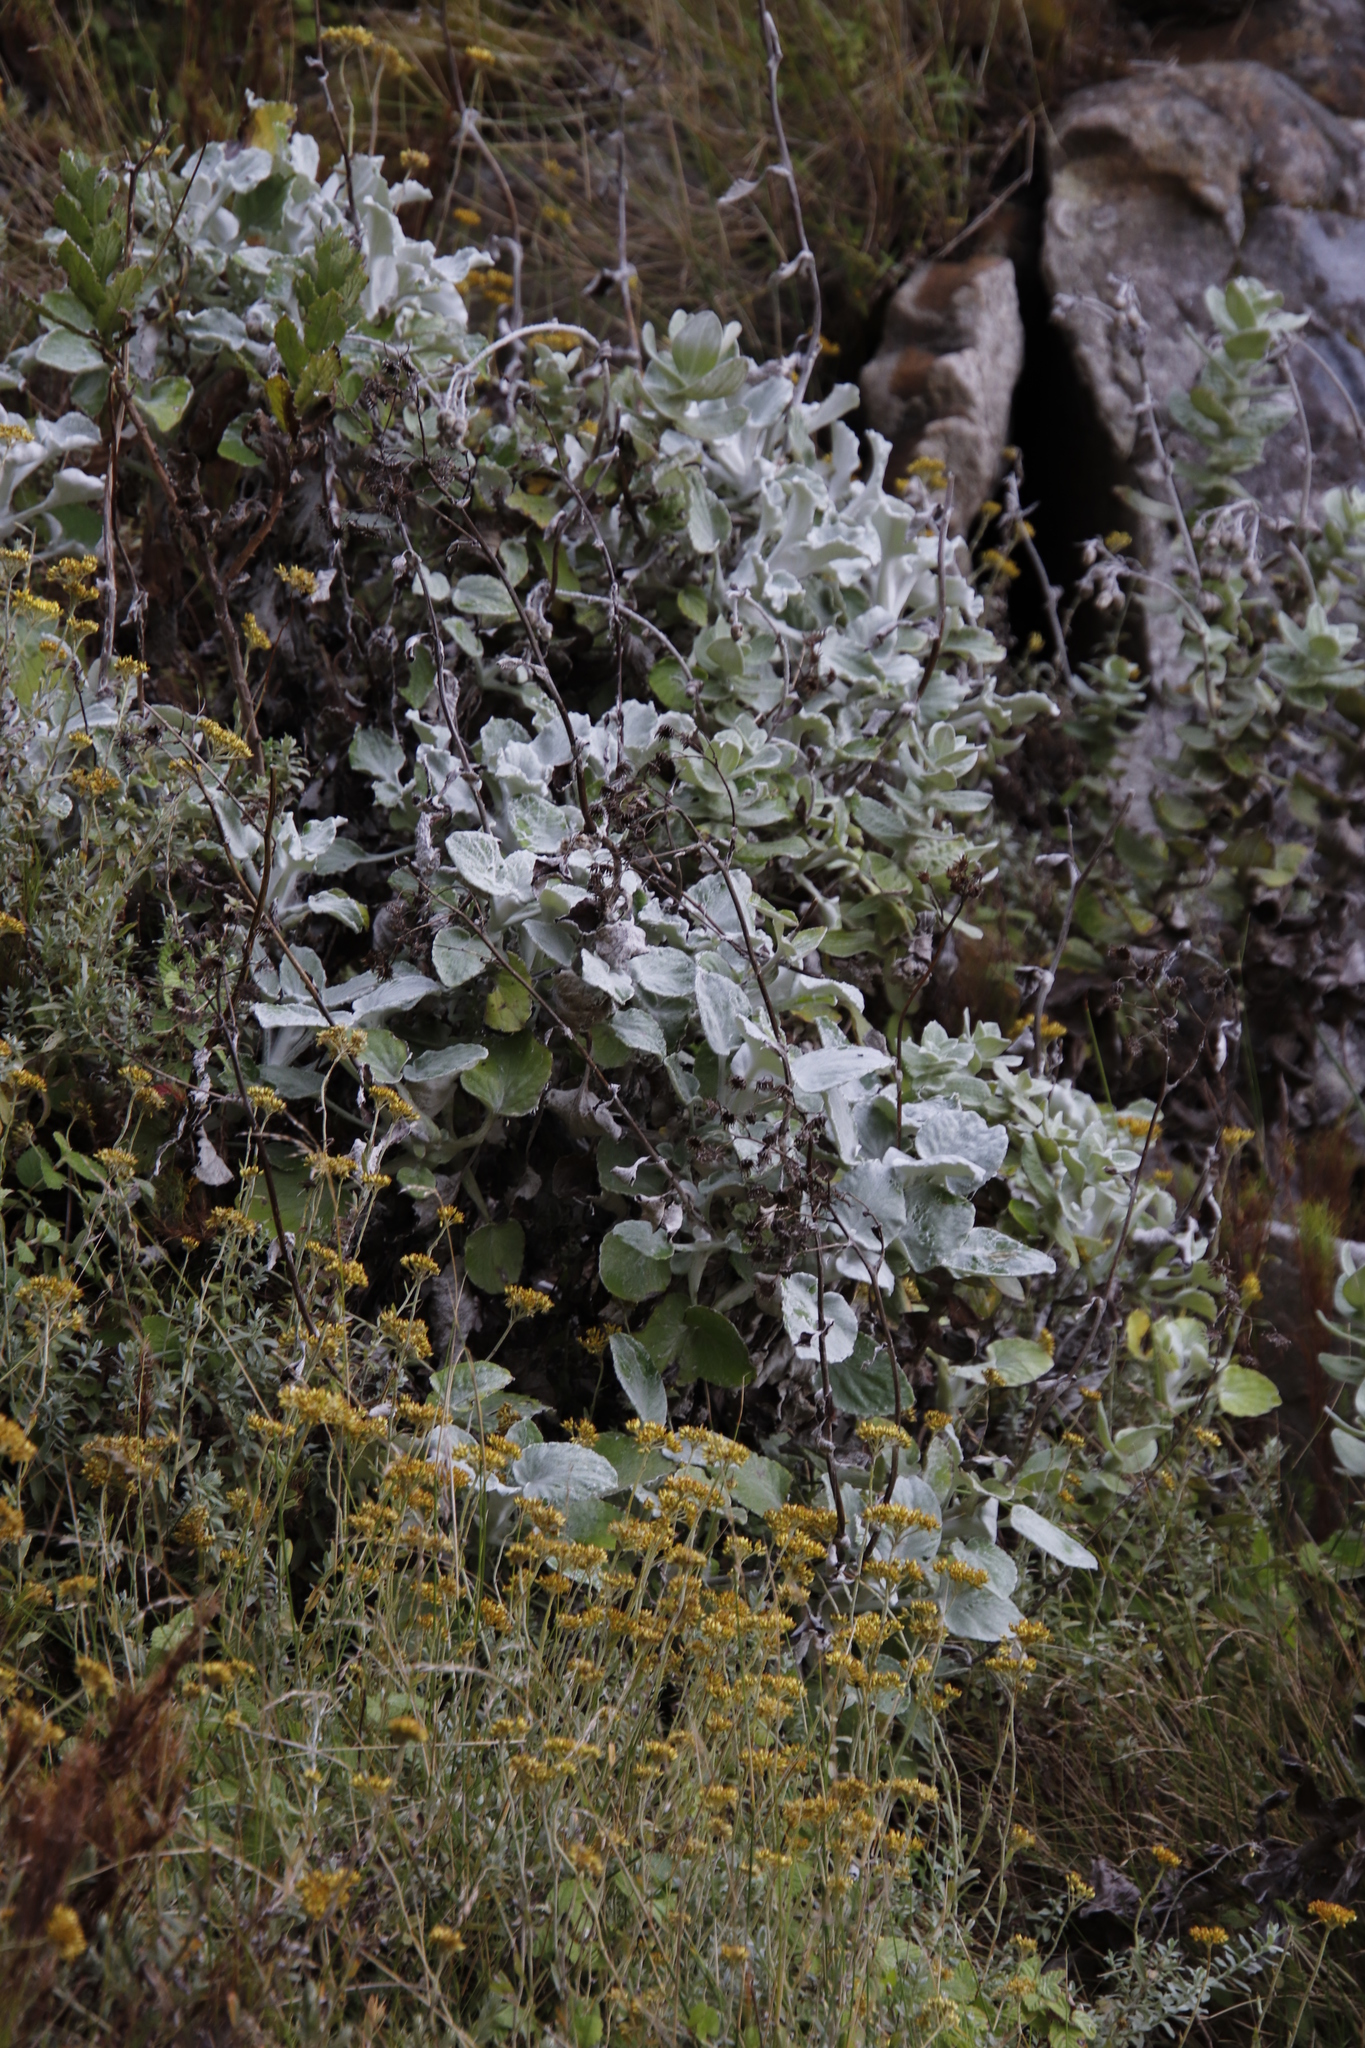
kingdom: Plantae
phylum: Tracheophyta
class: Magnoliopsida
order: Asterales
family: Asteraceae
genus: Senecio
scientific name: Senecio verbascifolius
